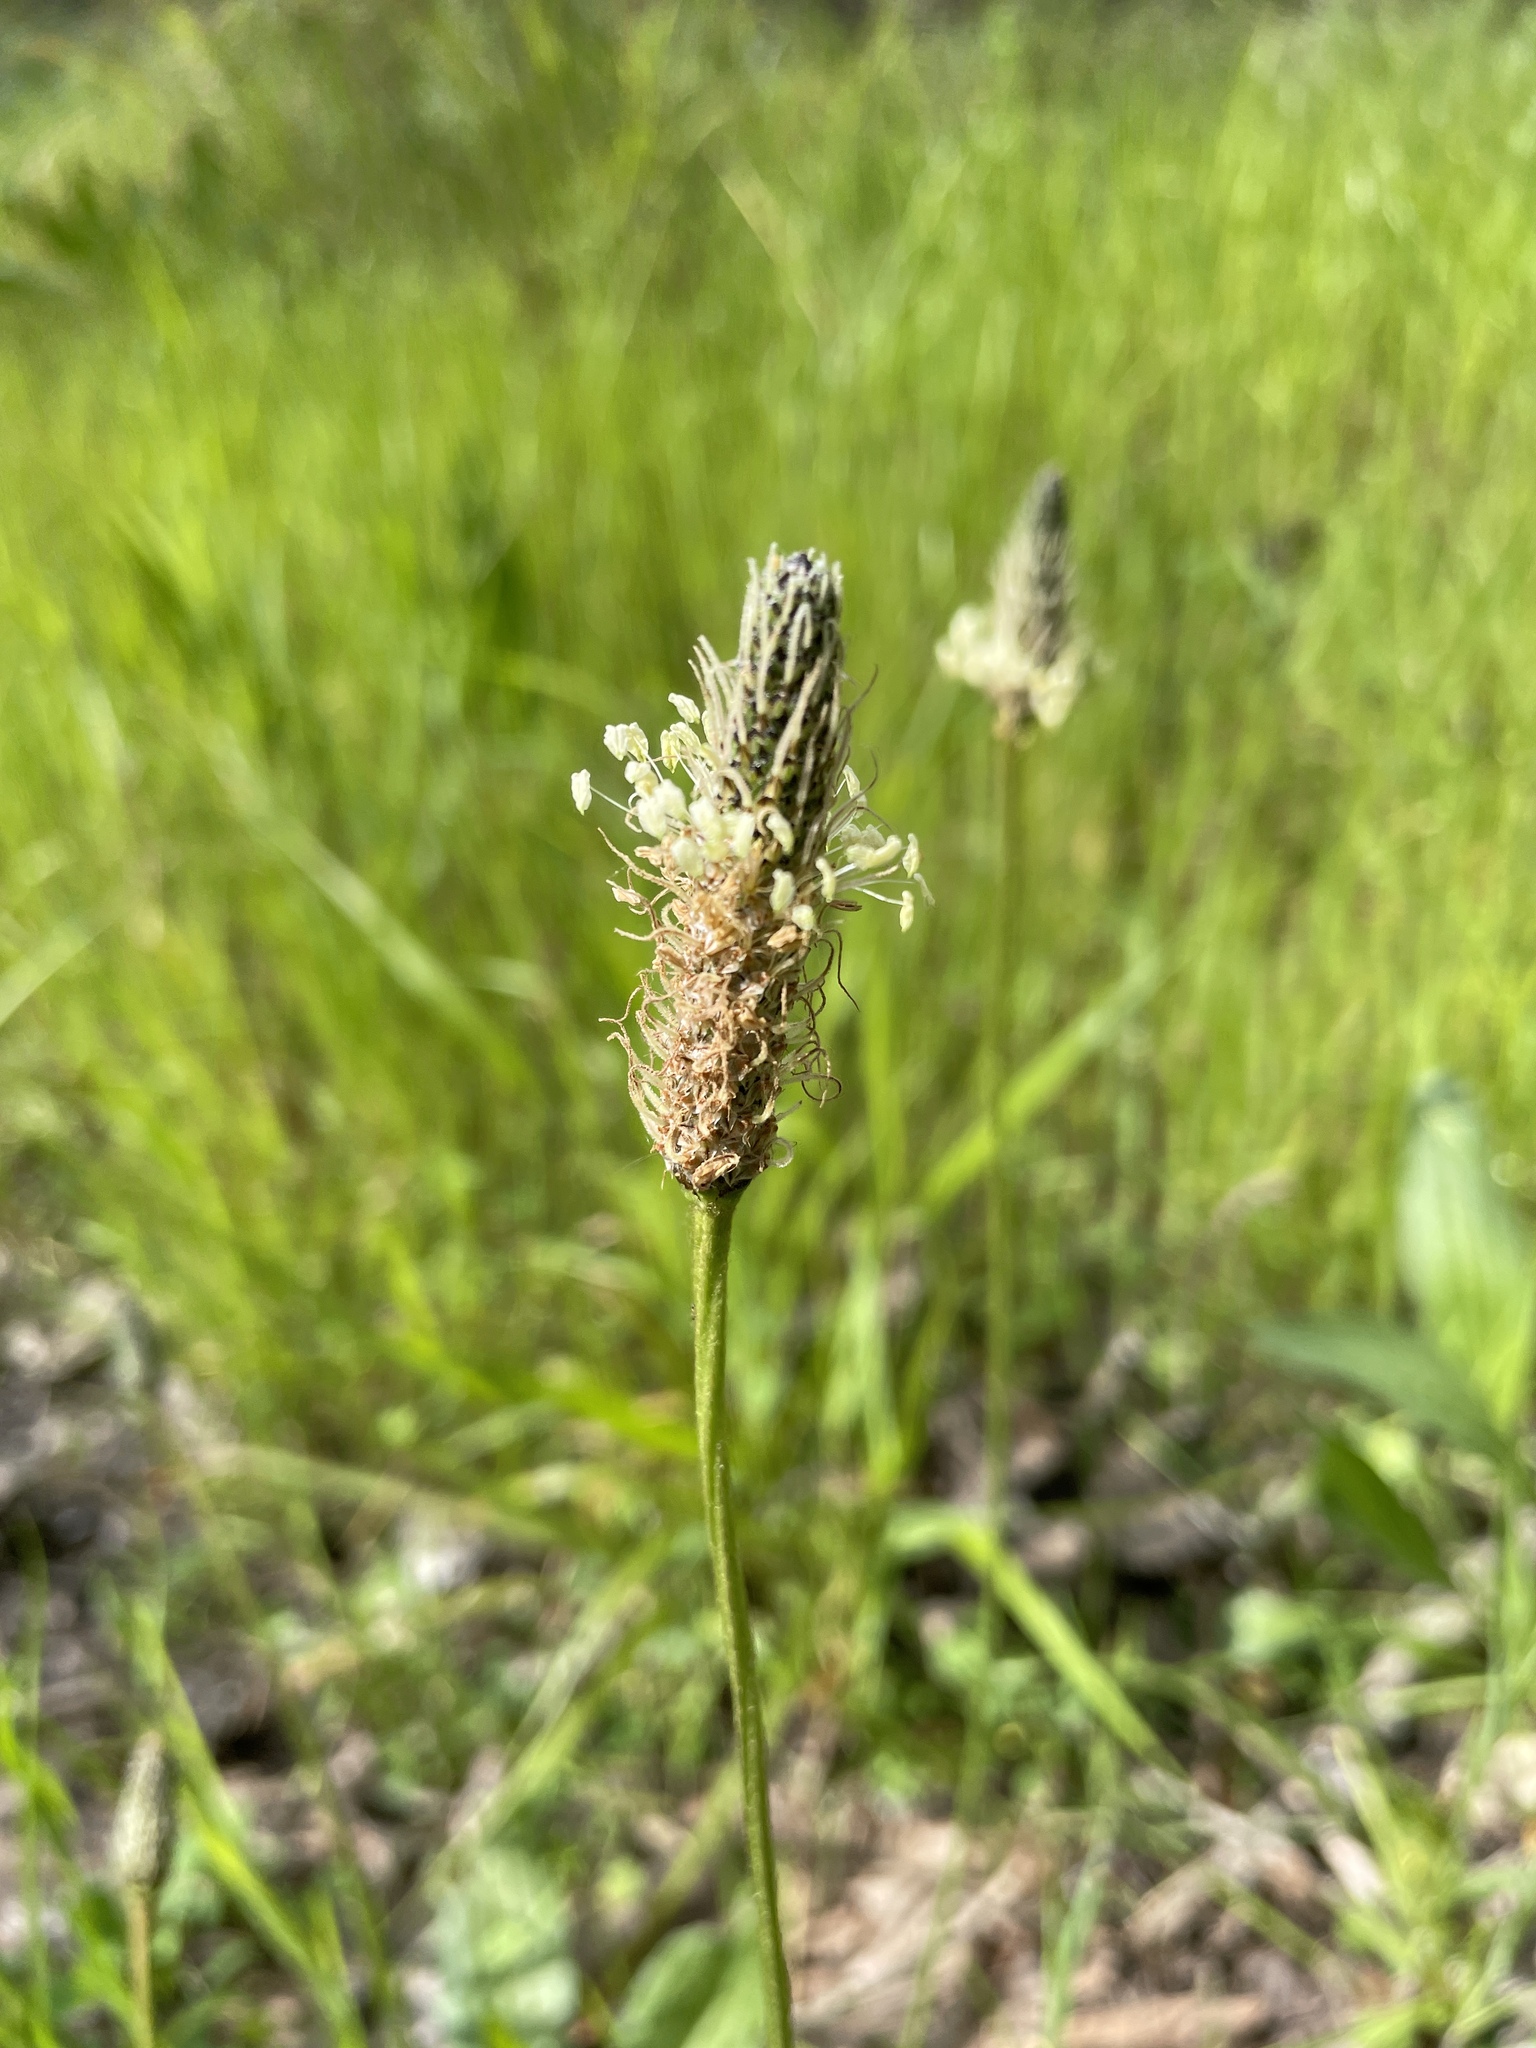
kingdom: Plantae
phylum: Tracheophyta
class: Magnoliopsida
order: Lamiales
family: Plantaginaceae
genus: Plantago
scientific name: Plantago lanceolata
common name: Ribwort plantain
